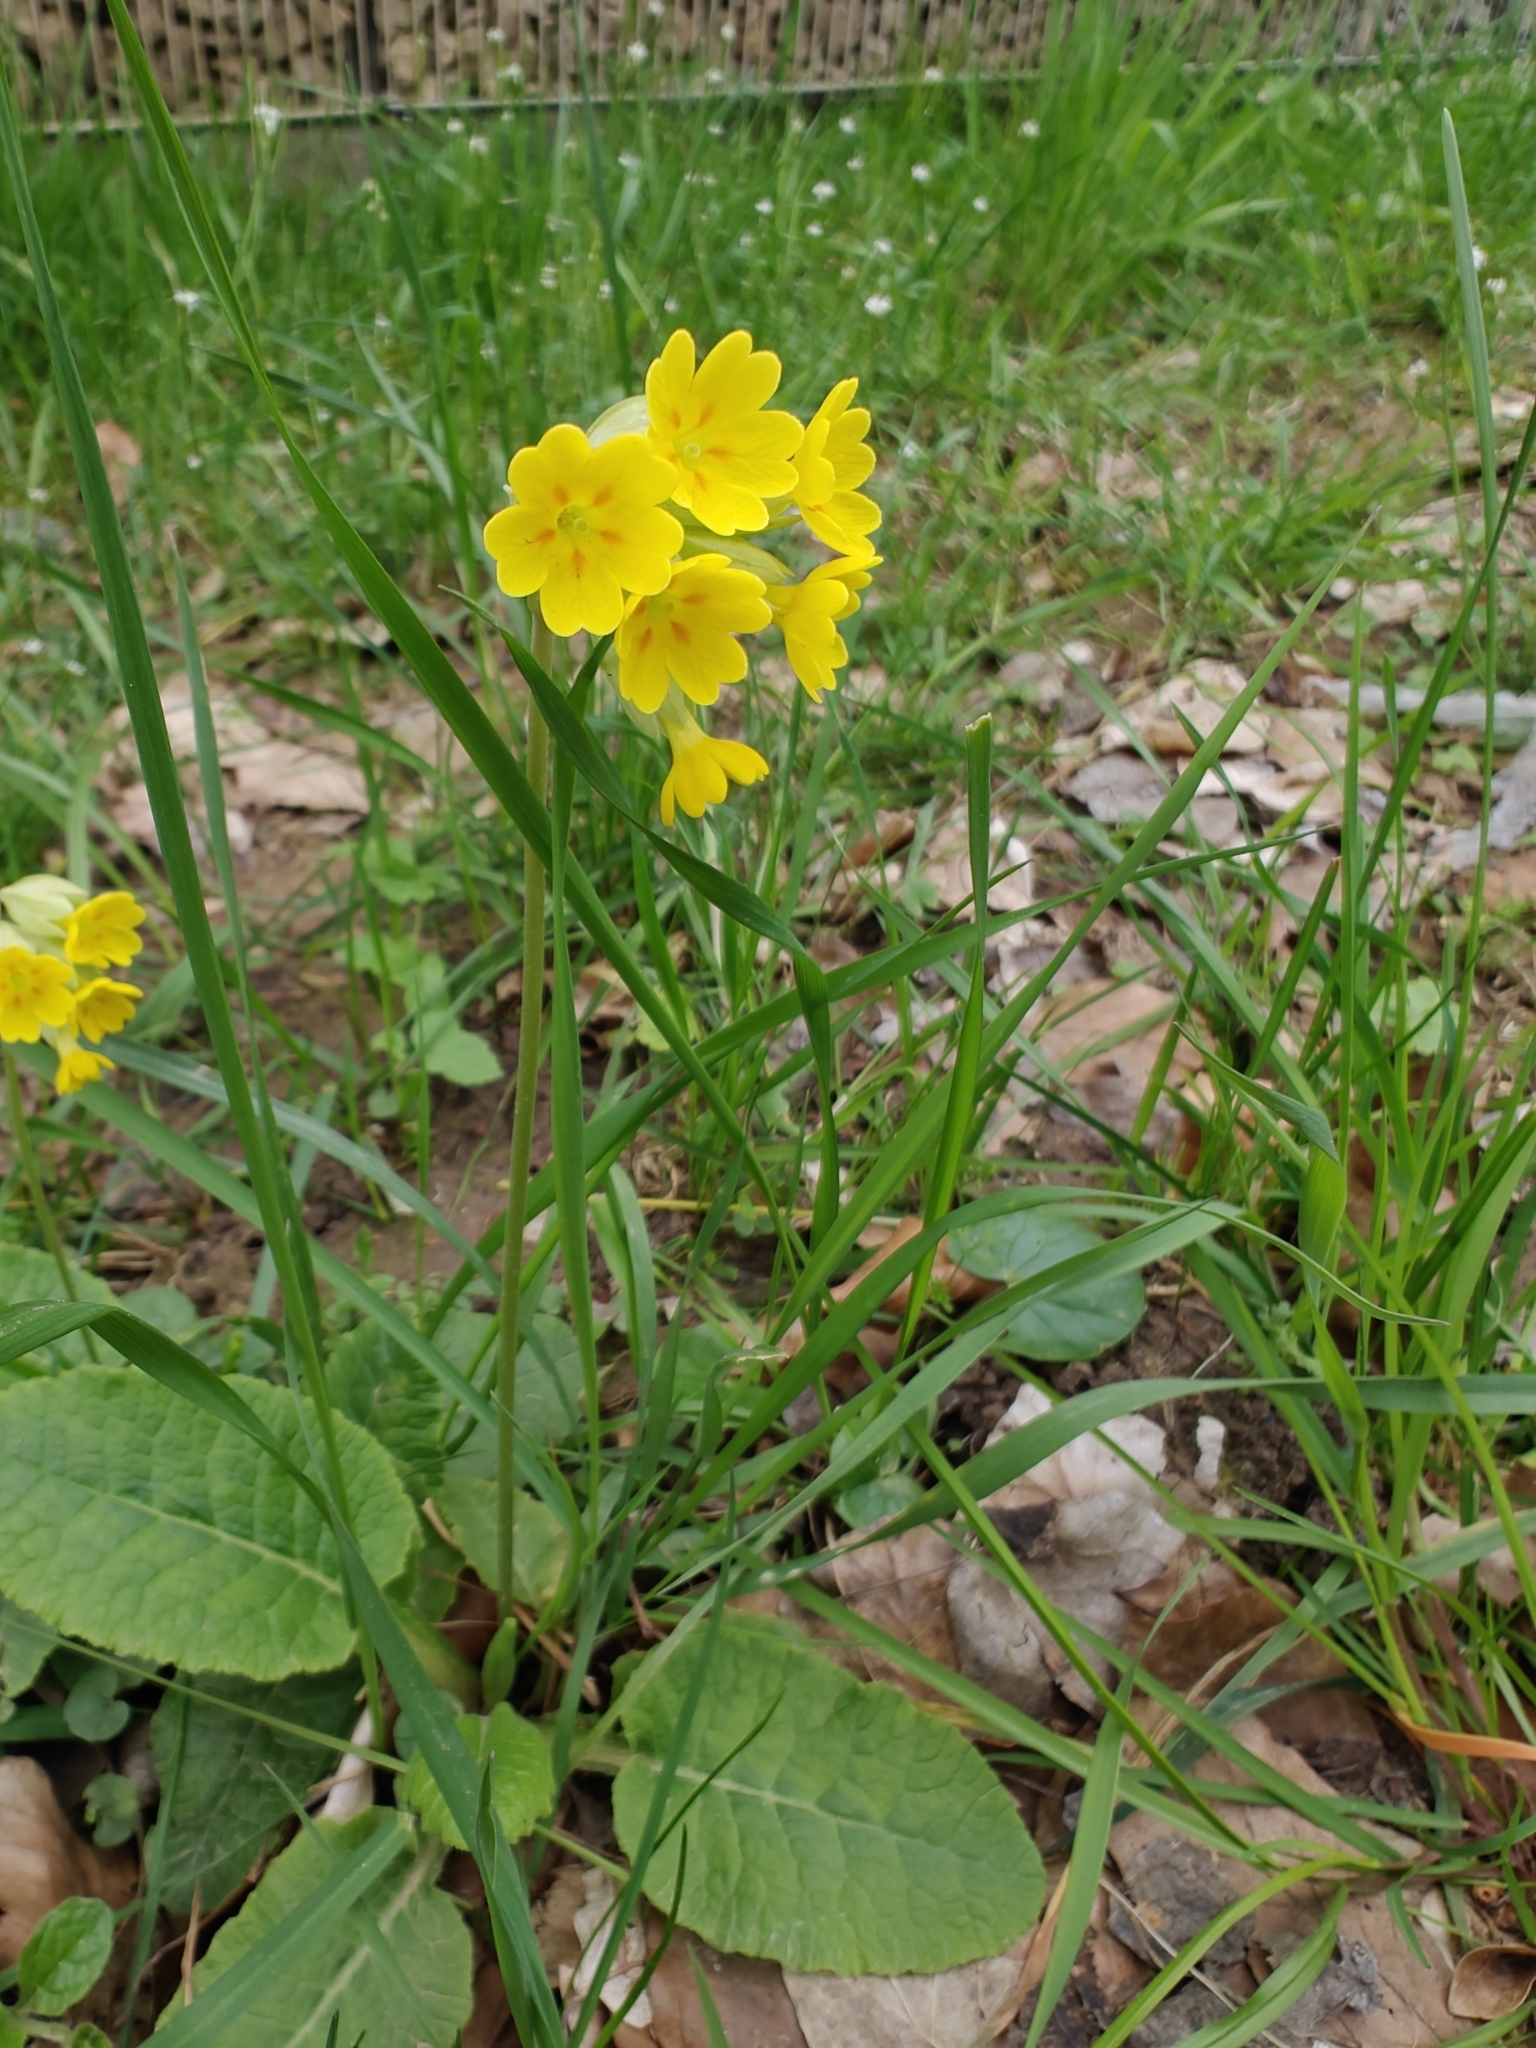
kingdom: Plantae
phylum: Tracheophyta
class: Magnoliopsida
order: Ericales
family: Primulaceae
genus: Primula
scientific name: Primula veris
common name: Cowslip
